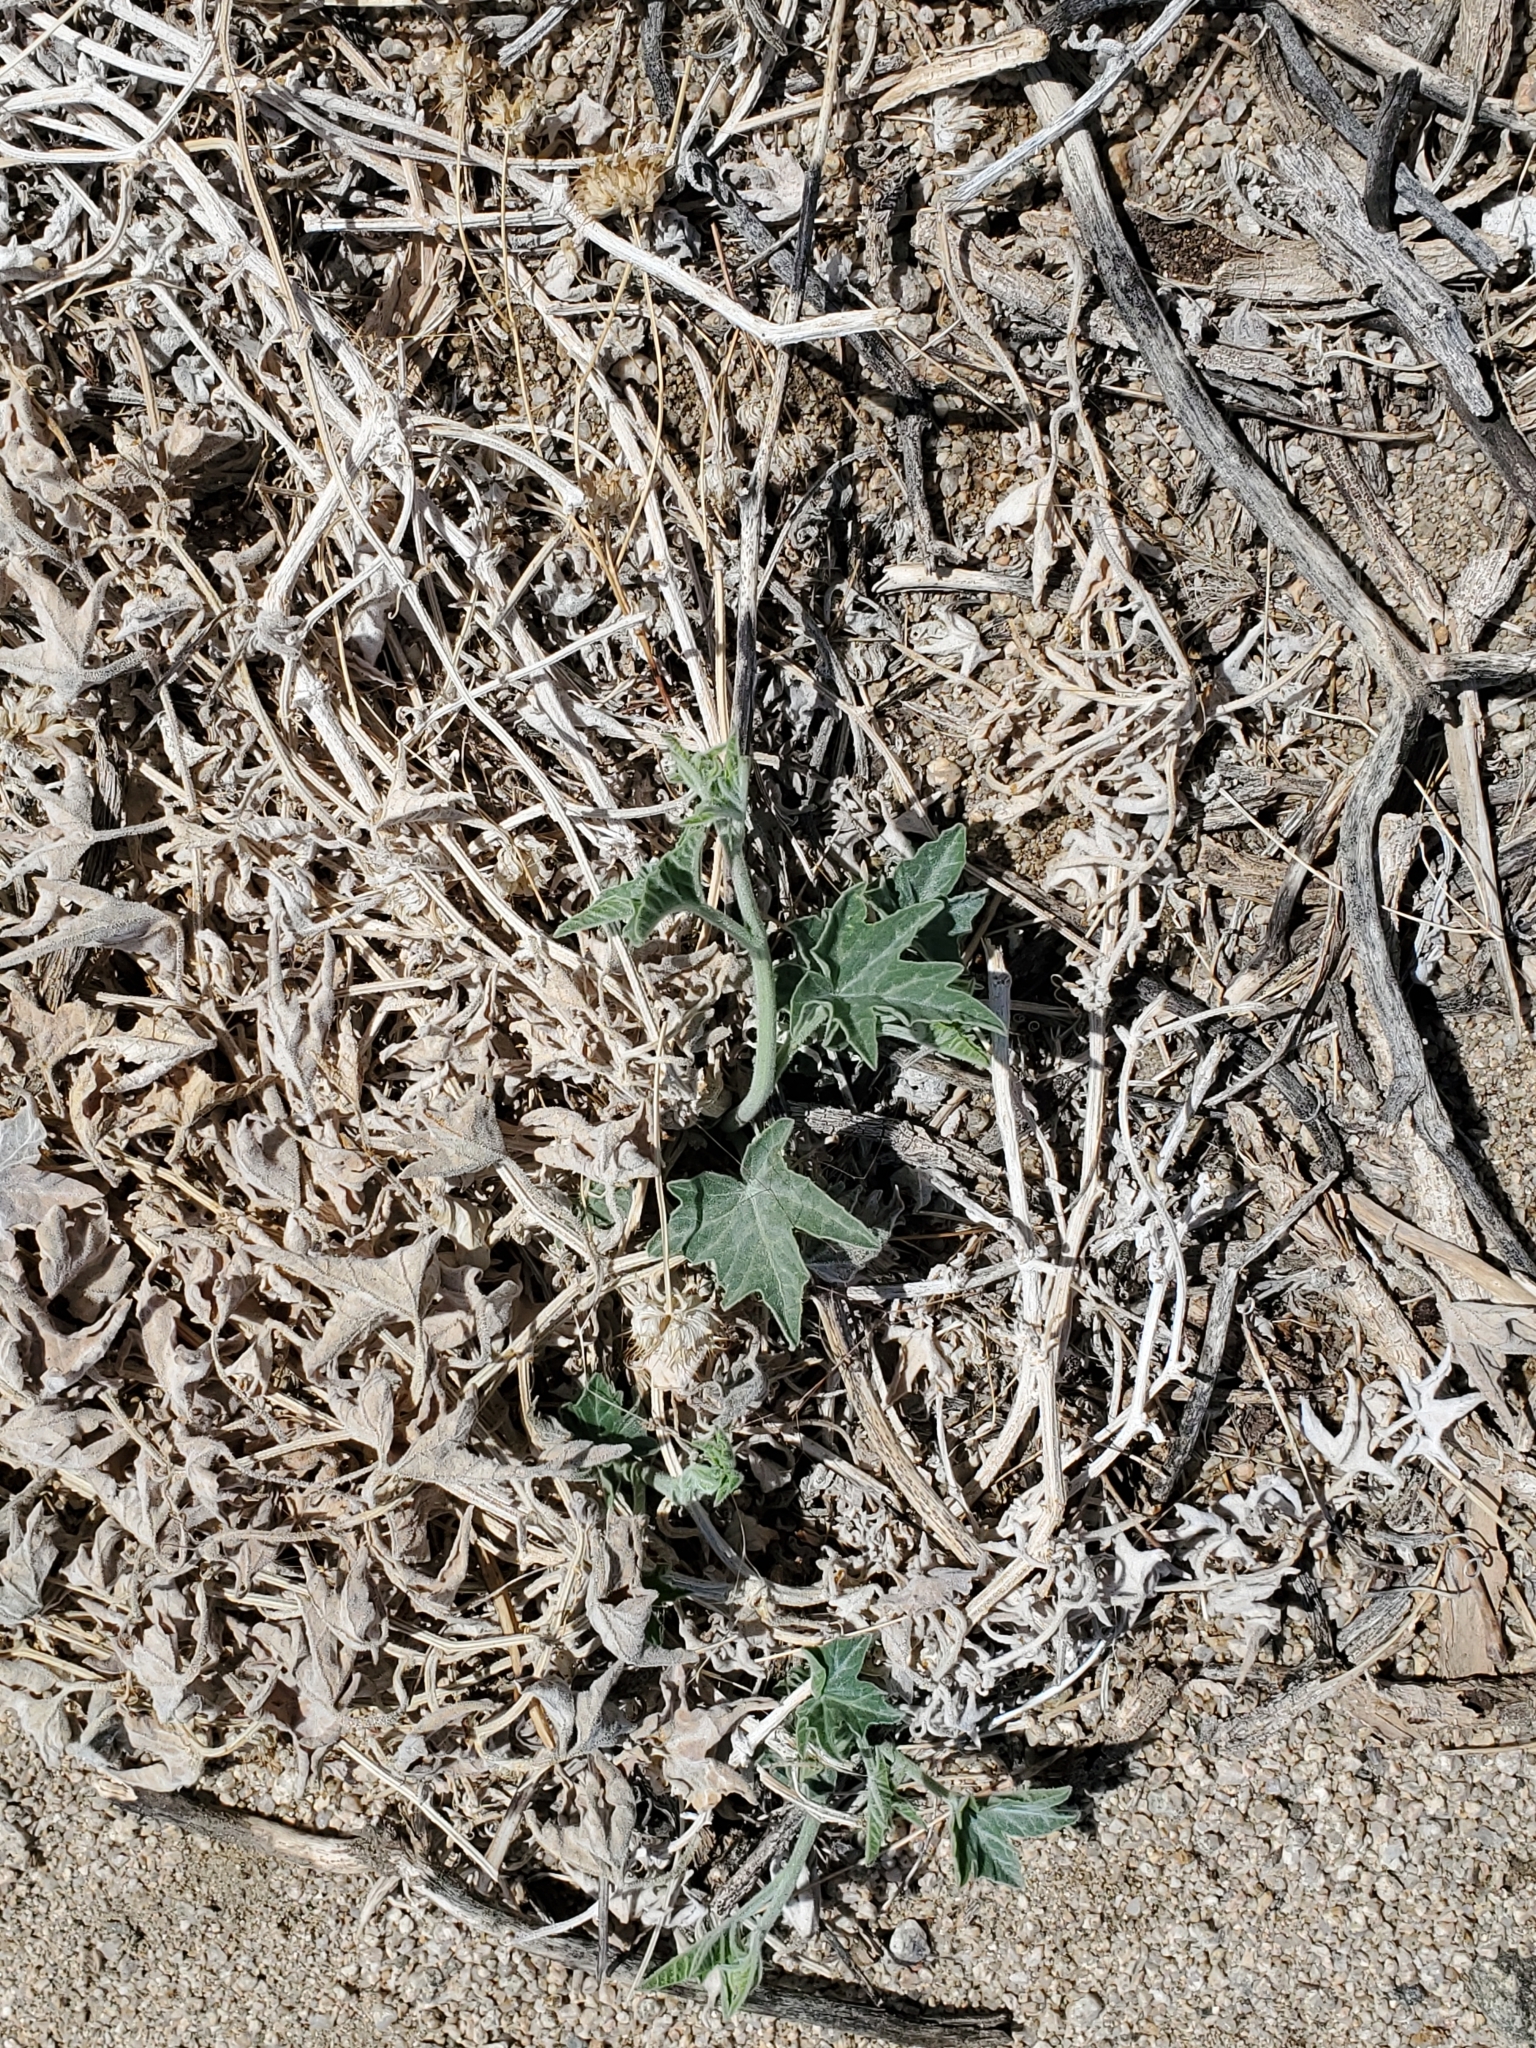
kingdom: Plantae
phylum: Tracheophyta
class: Magnoliopsida
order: Cucurbitales
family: Cucurbitaceae
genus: Cucurbita
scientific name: Cucurbita palmata
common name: Coyote-melon
